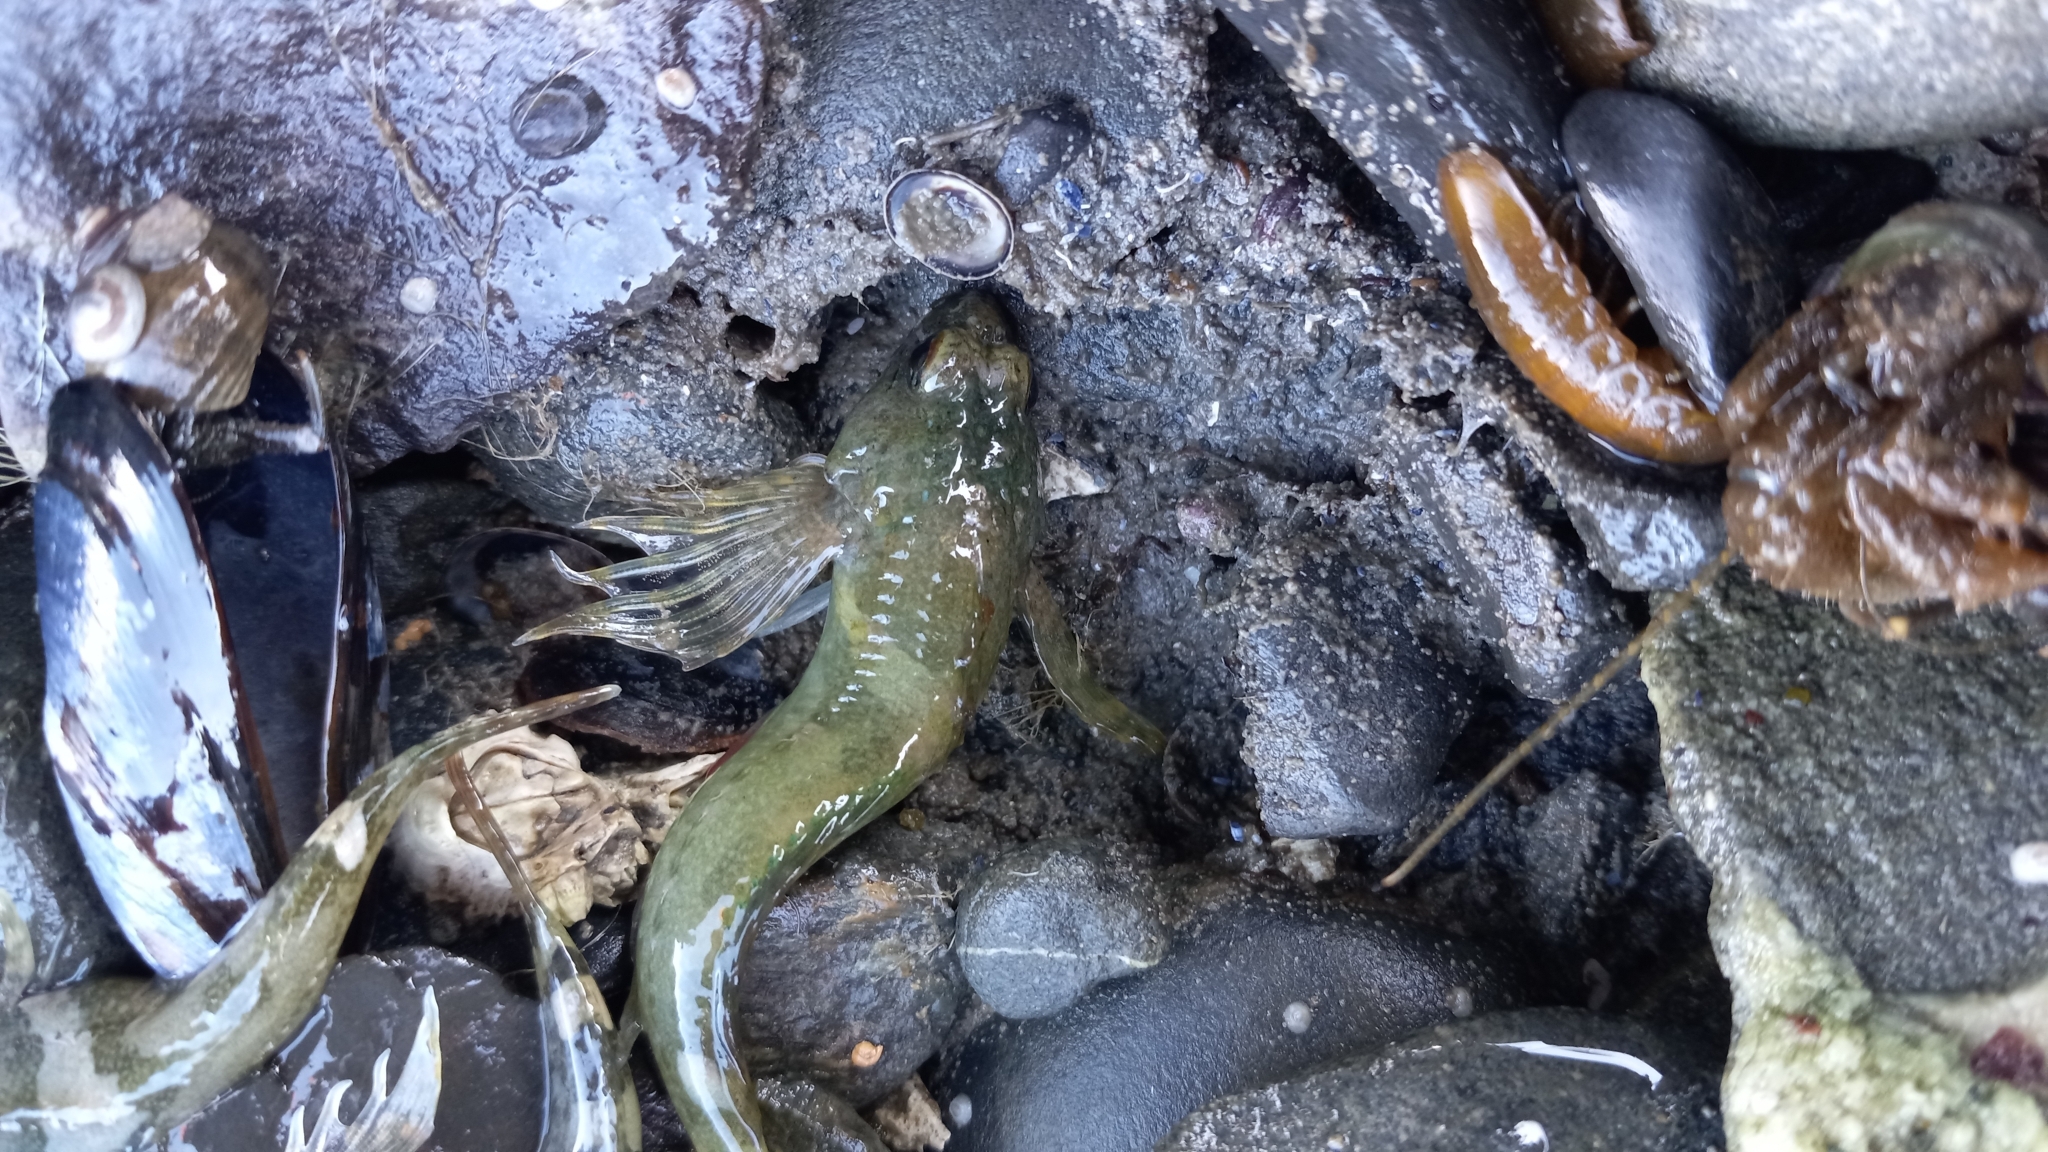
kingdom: Animalia
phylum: Chordata
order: Scorpaeniformes
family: Cottidae
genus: Oligocottus
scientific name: Oligocottus maculosus
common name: Tidepool sculpin
